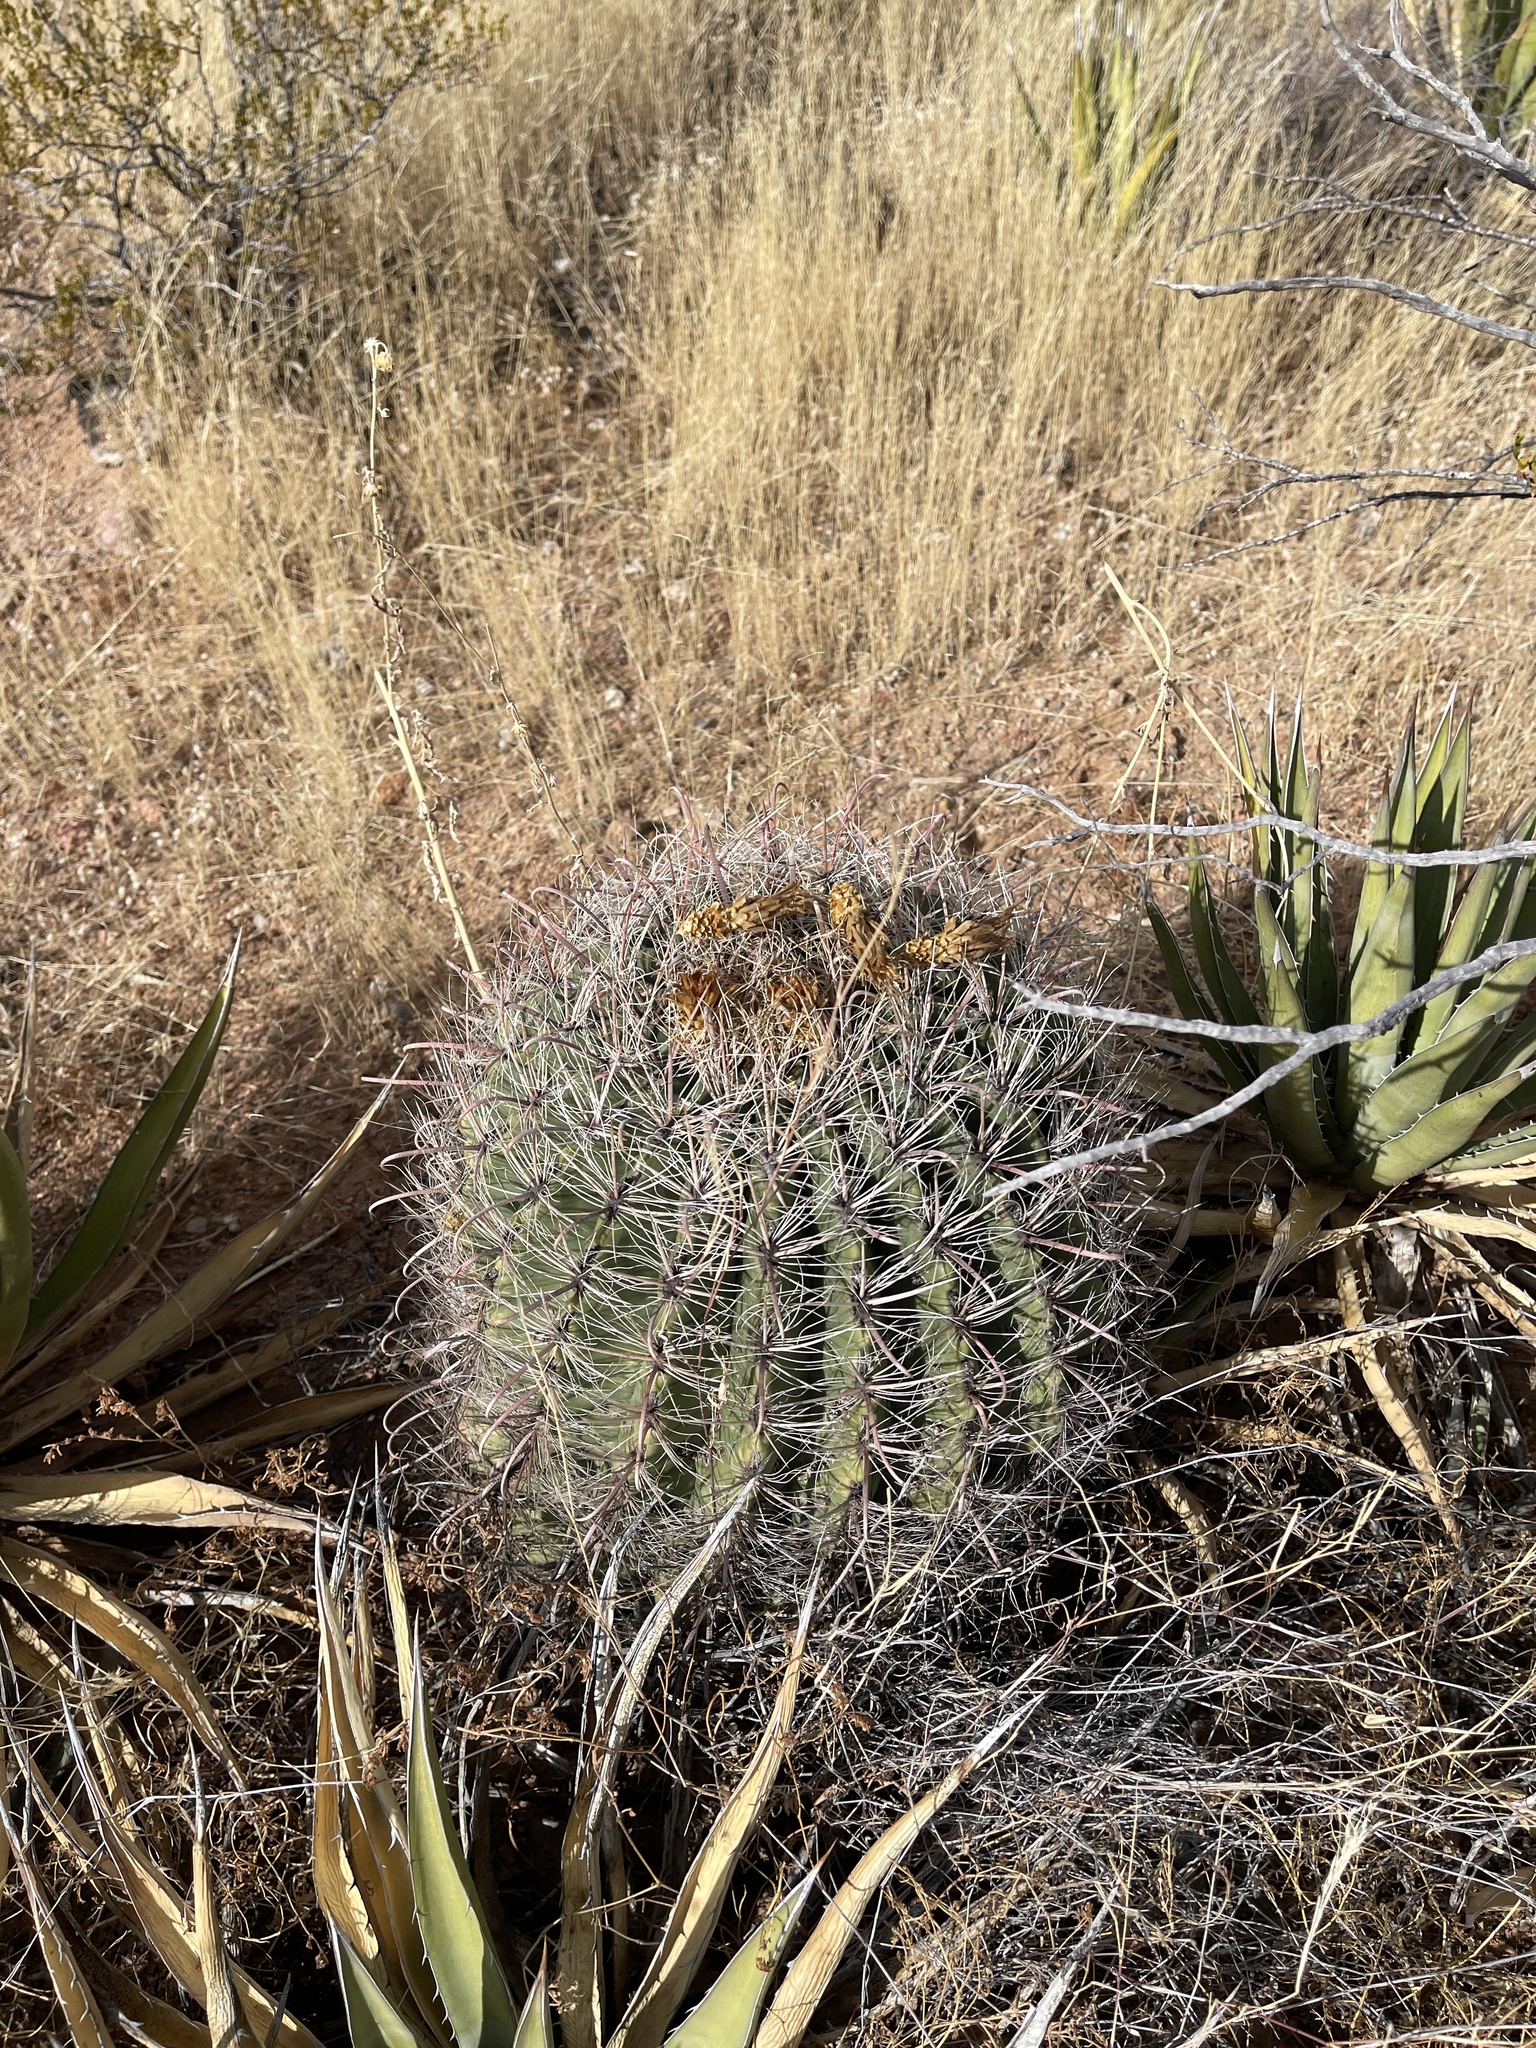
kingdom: Plantae
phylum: Tracheophyta
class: Magnoliopsida
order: Caryophyllales
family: Cactaceae
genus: Ferocactus
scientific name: Ferocactus wislizeni
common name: Candy barrel cactus
